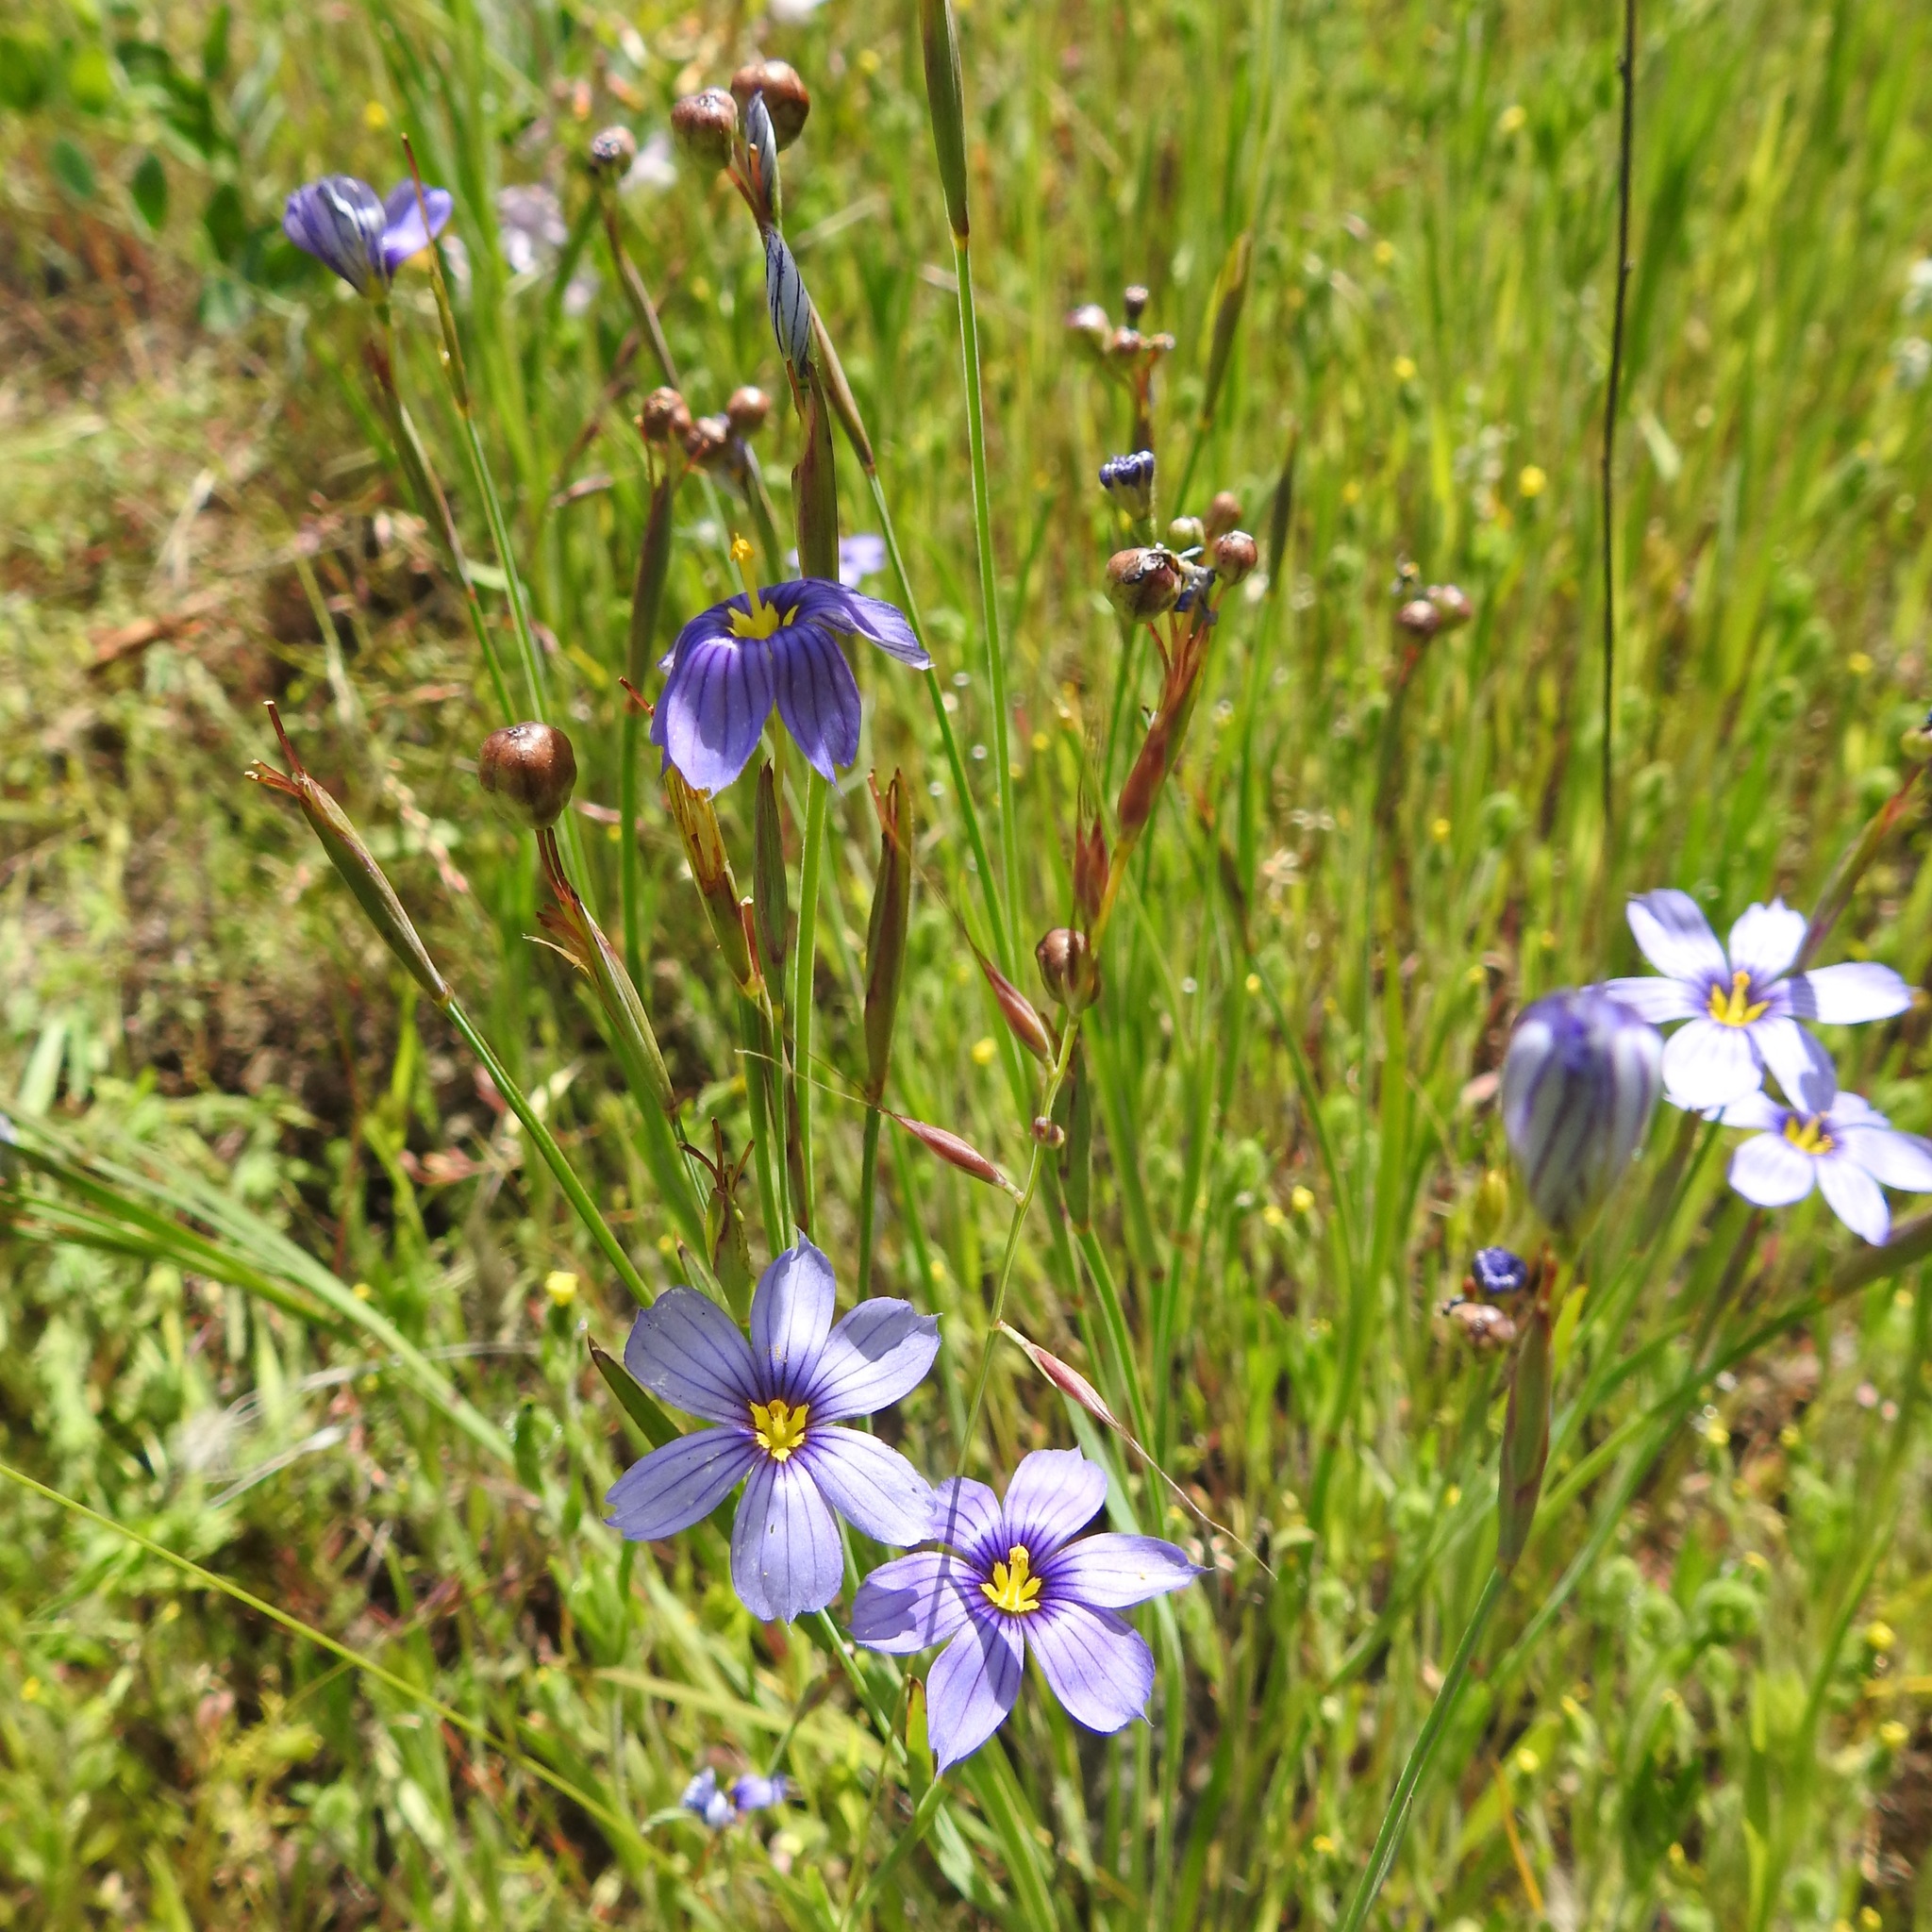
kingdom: Plantae
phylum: Tracheophyta
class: Liliopsida
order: Asparagales
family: Iridaceae
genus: Sisyrinchium
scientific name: Sisyrinchium bellum
